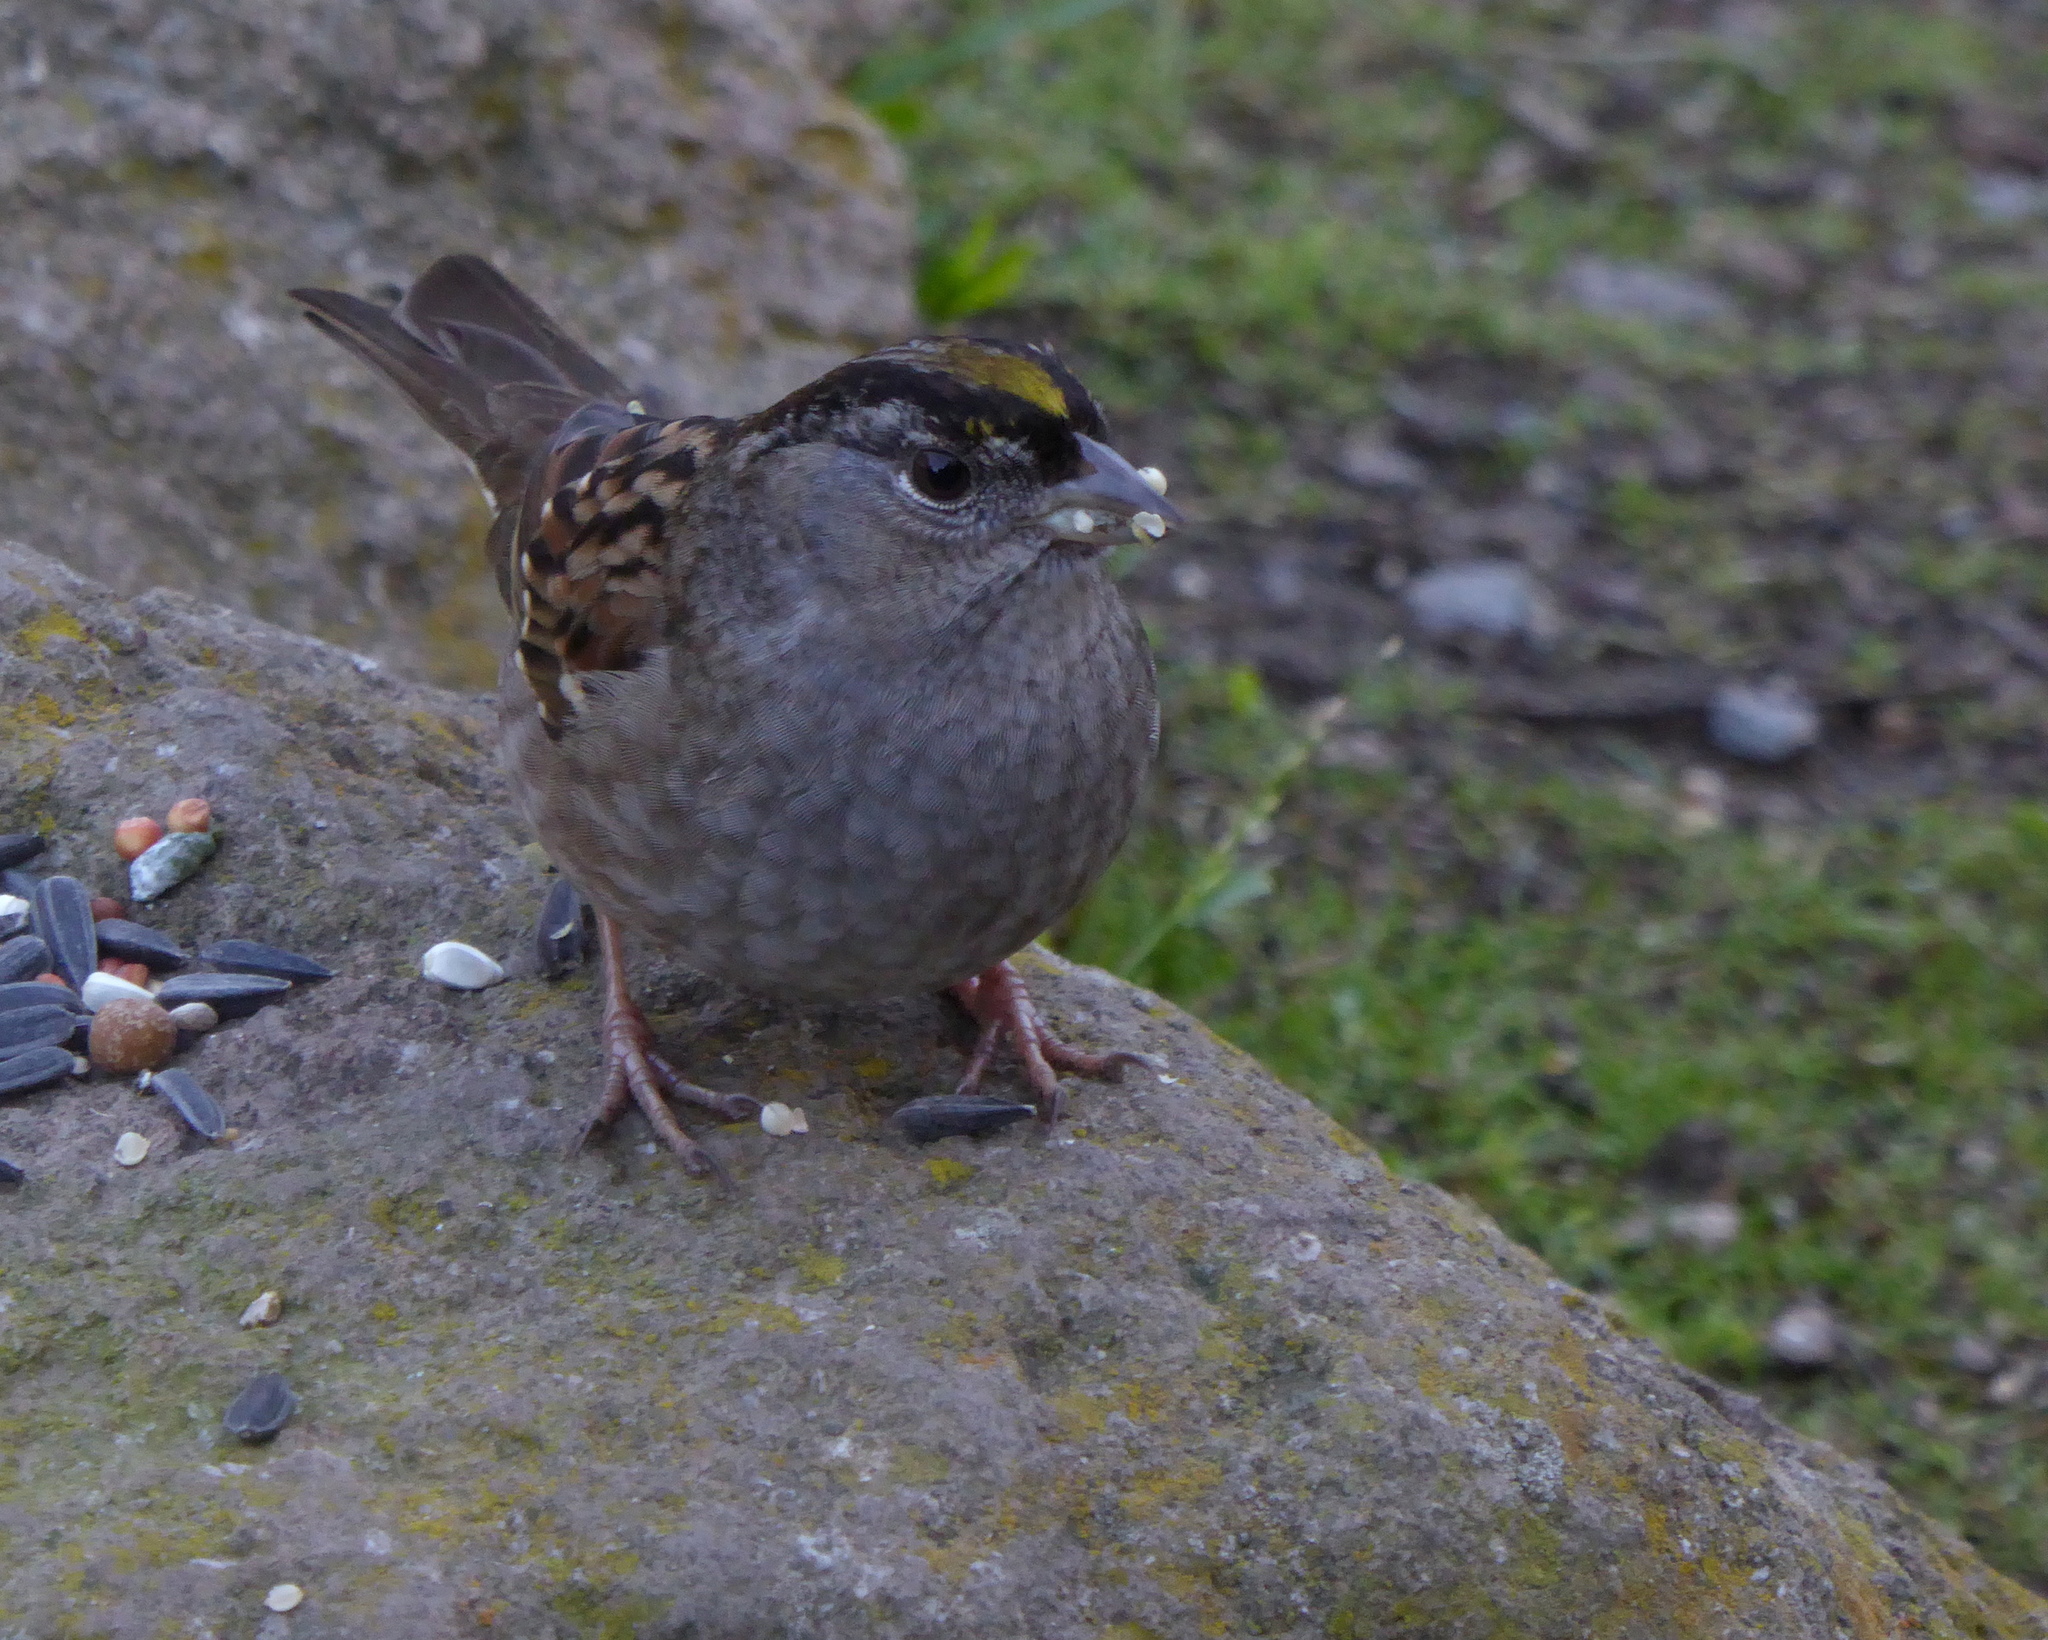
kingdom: Animalia
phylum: Chordata
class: Aves
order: Passeriformes
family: Passerellidae
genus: Zonotrichia
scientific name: Zonotrichia atricapilla
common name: Golden-crowned sparrow
